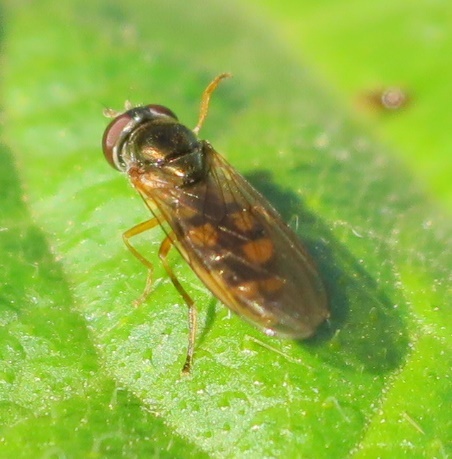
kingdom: Animalia
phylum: Arthropoda
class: Insecta
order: Diptera
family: Syrphidae
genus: Melanostoma
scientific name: Melanostoma fasciatum
